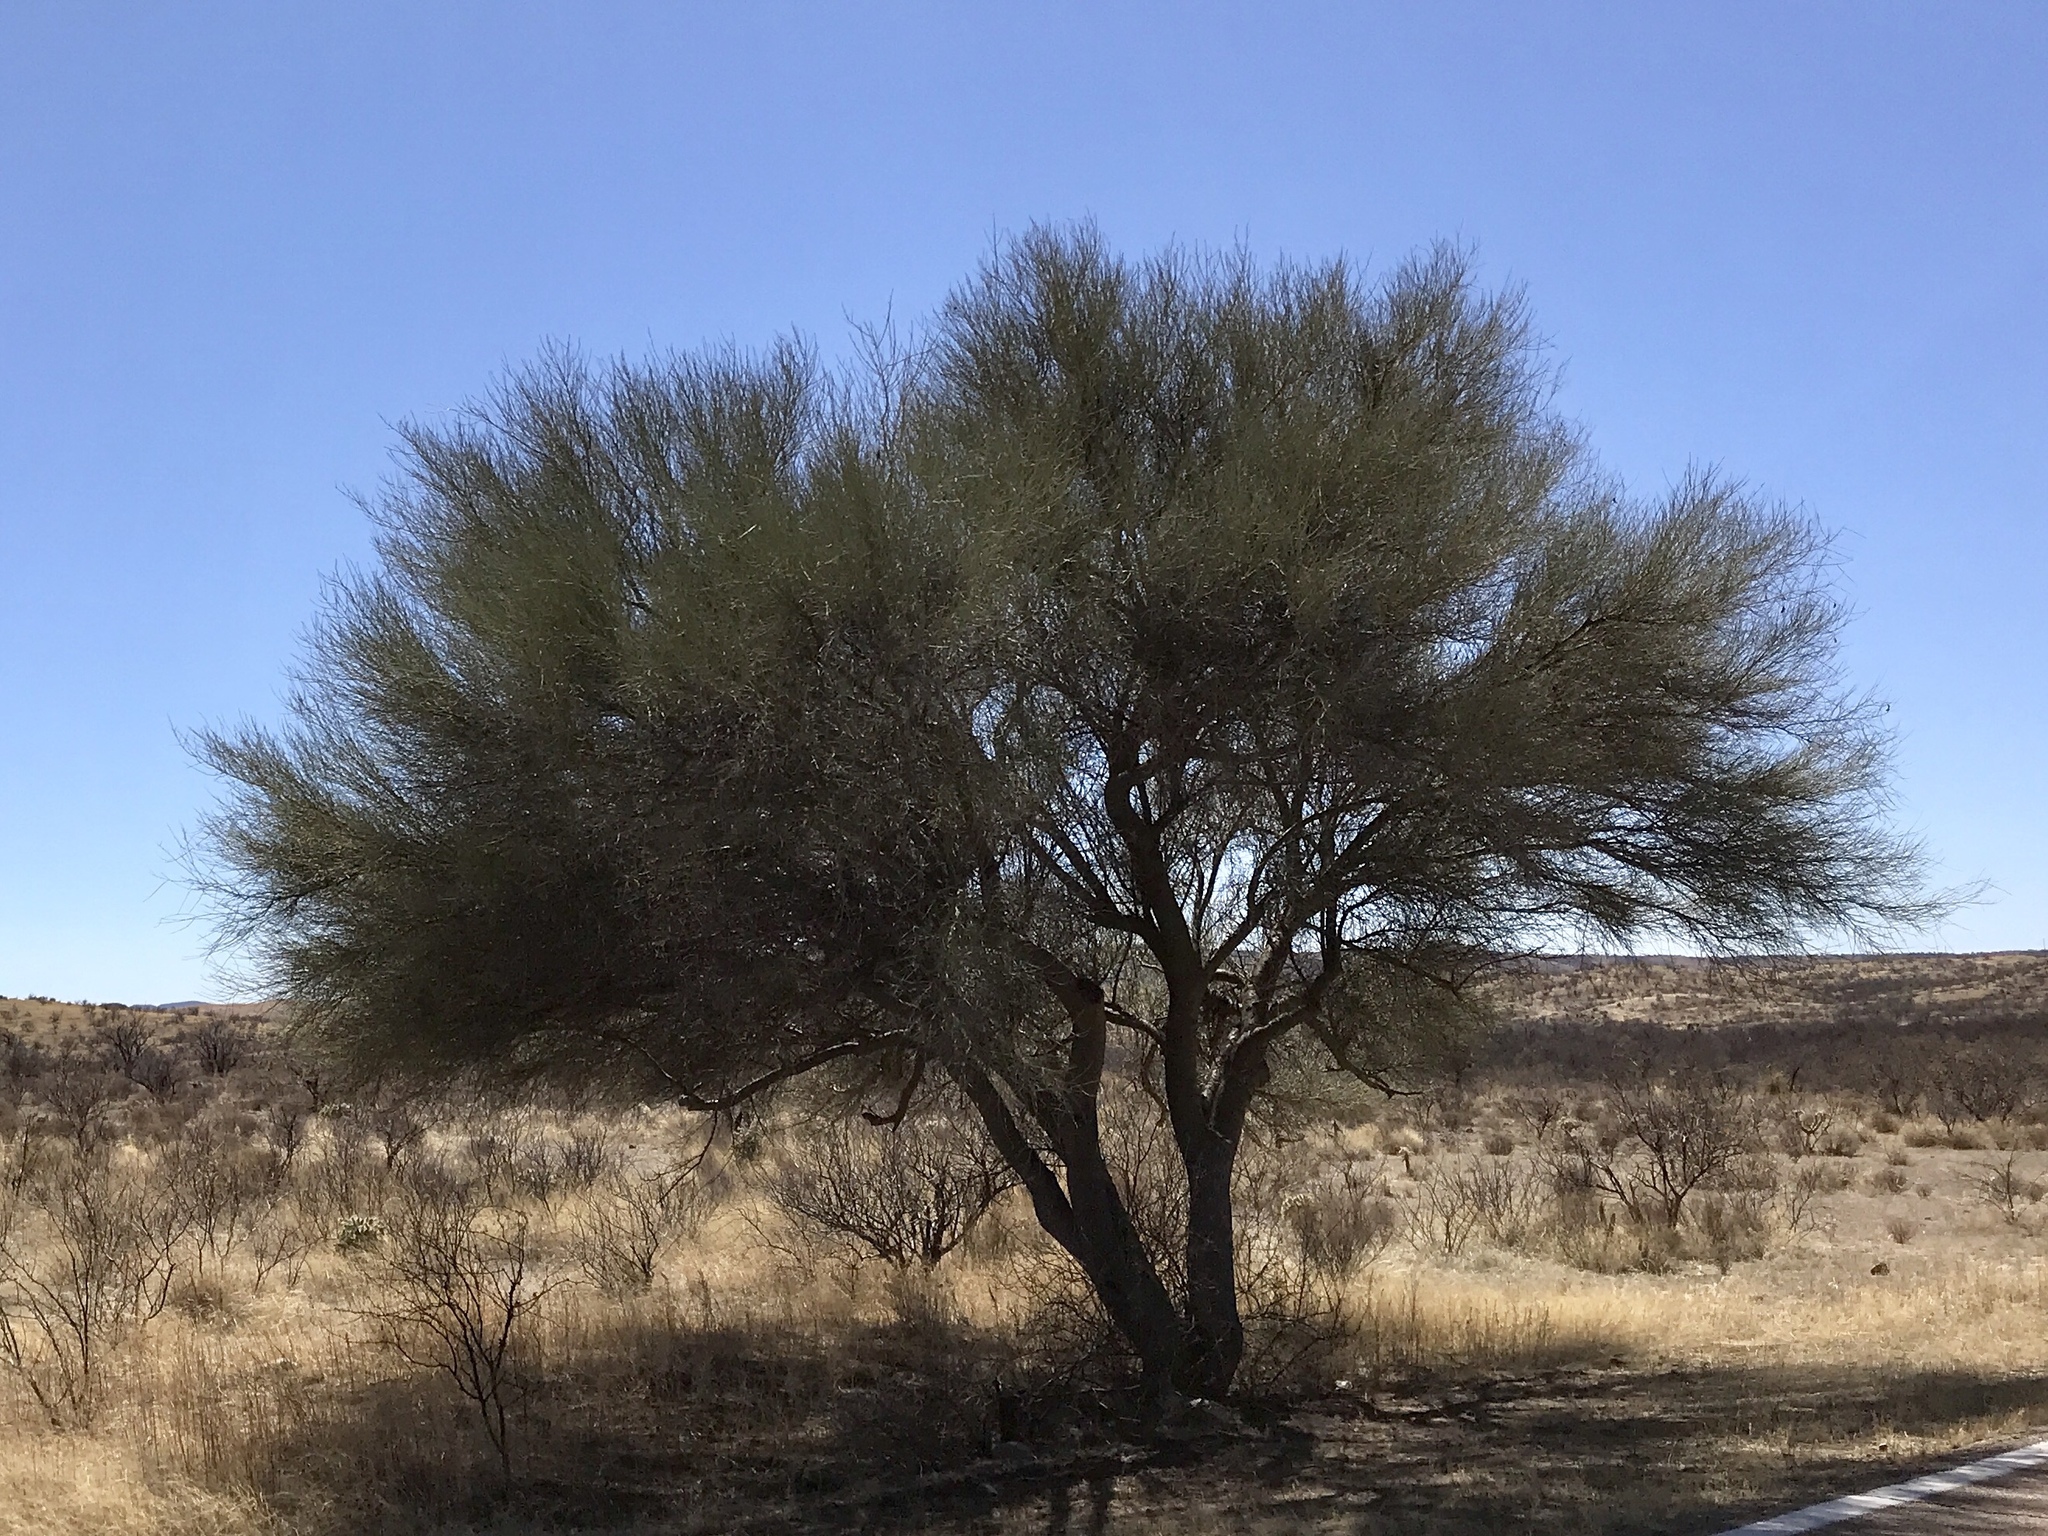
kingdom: Plantae
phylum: Tracheophyta
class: Magnoliopsida
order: Fabales
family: Fabaceae
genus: Parkinsonia
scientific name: Parkinsonia florida
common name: Blue paloverde
